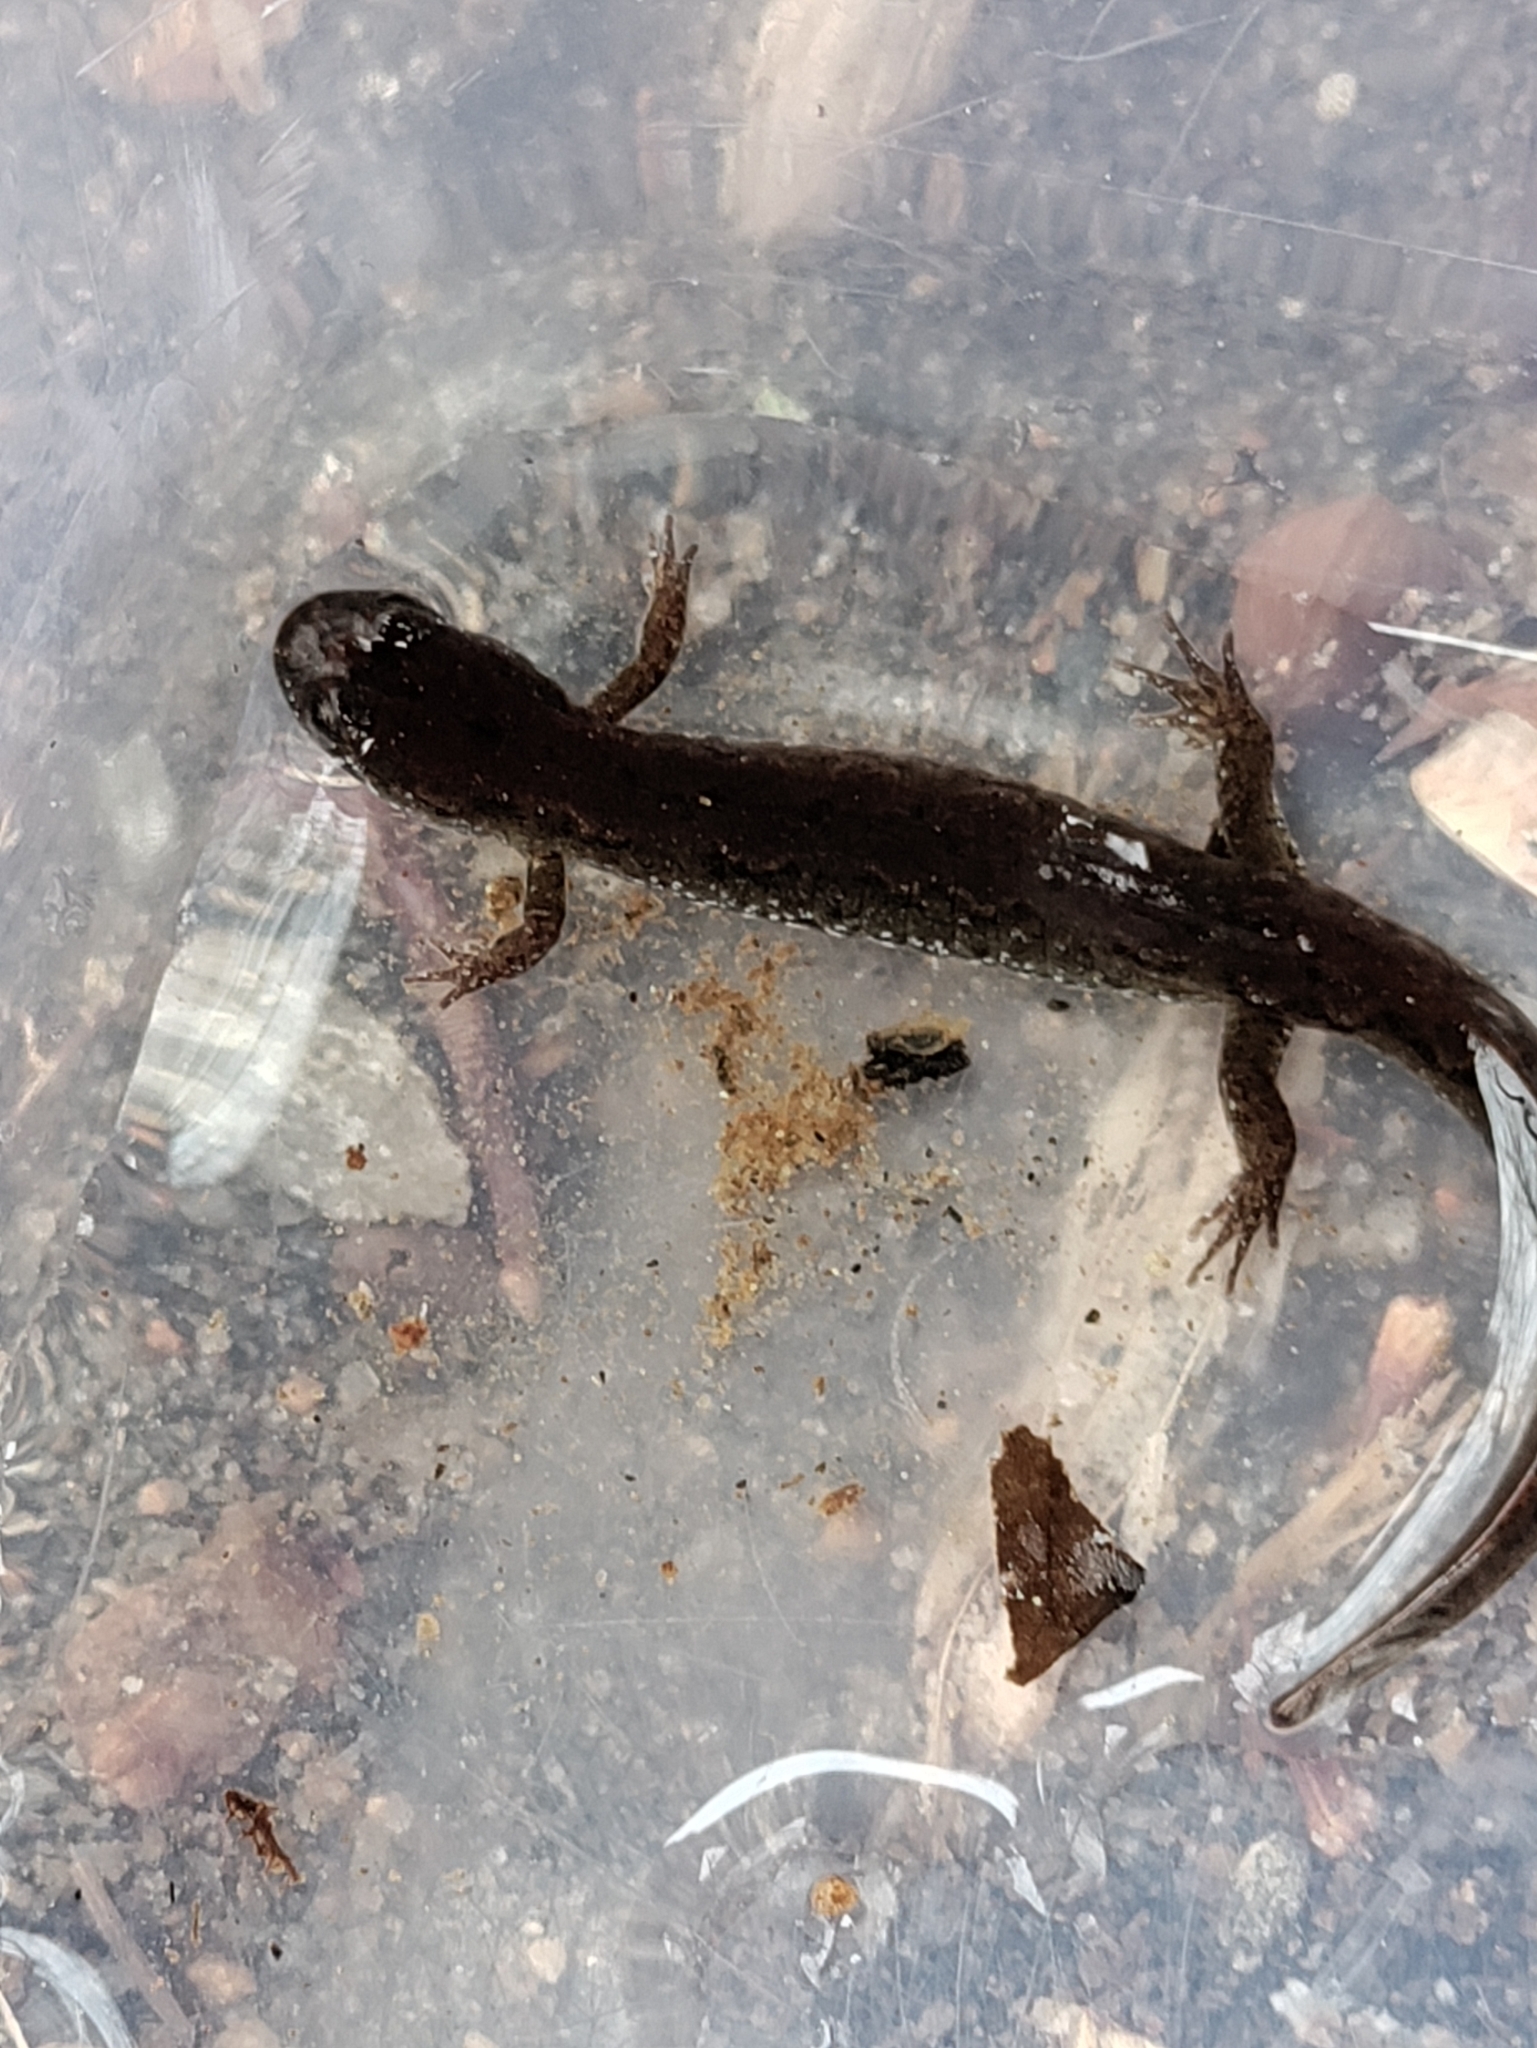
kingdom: Animalia
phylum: Chordata
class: Amphibia
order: Caudata
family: Plethodontidae
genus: Desmognathus
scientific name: Desmognathus fuscus
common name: Northern dusky salamander
